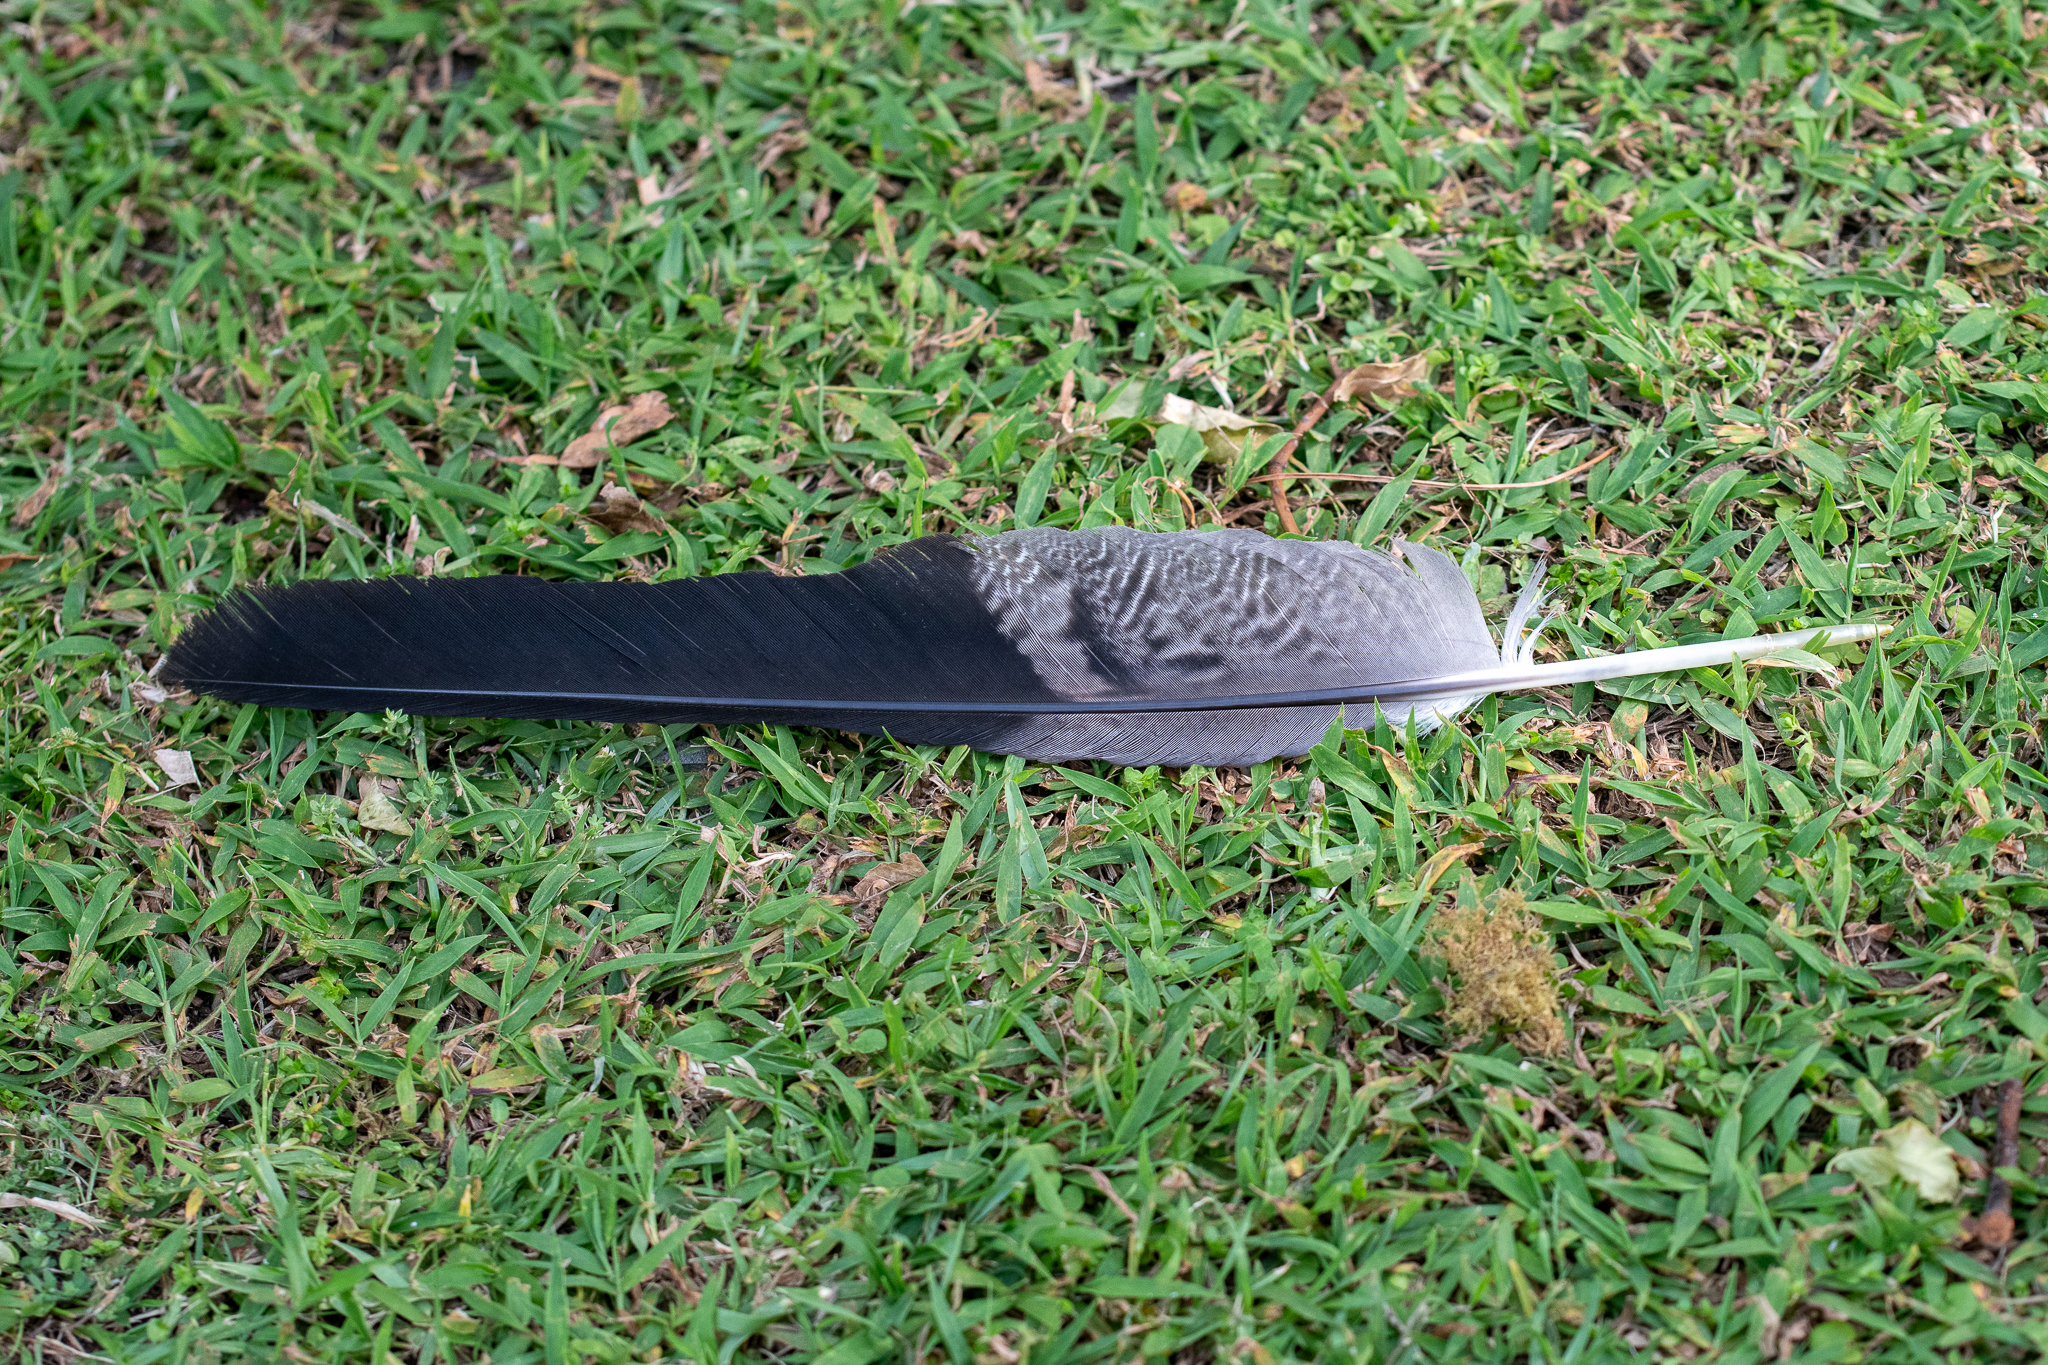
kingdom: Animalia
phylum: Chordata
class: Aves
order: Accipitriformes
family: Accipitridae
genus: Polyboroides
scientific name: Polyboroides typus
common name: African harrier-hawk
